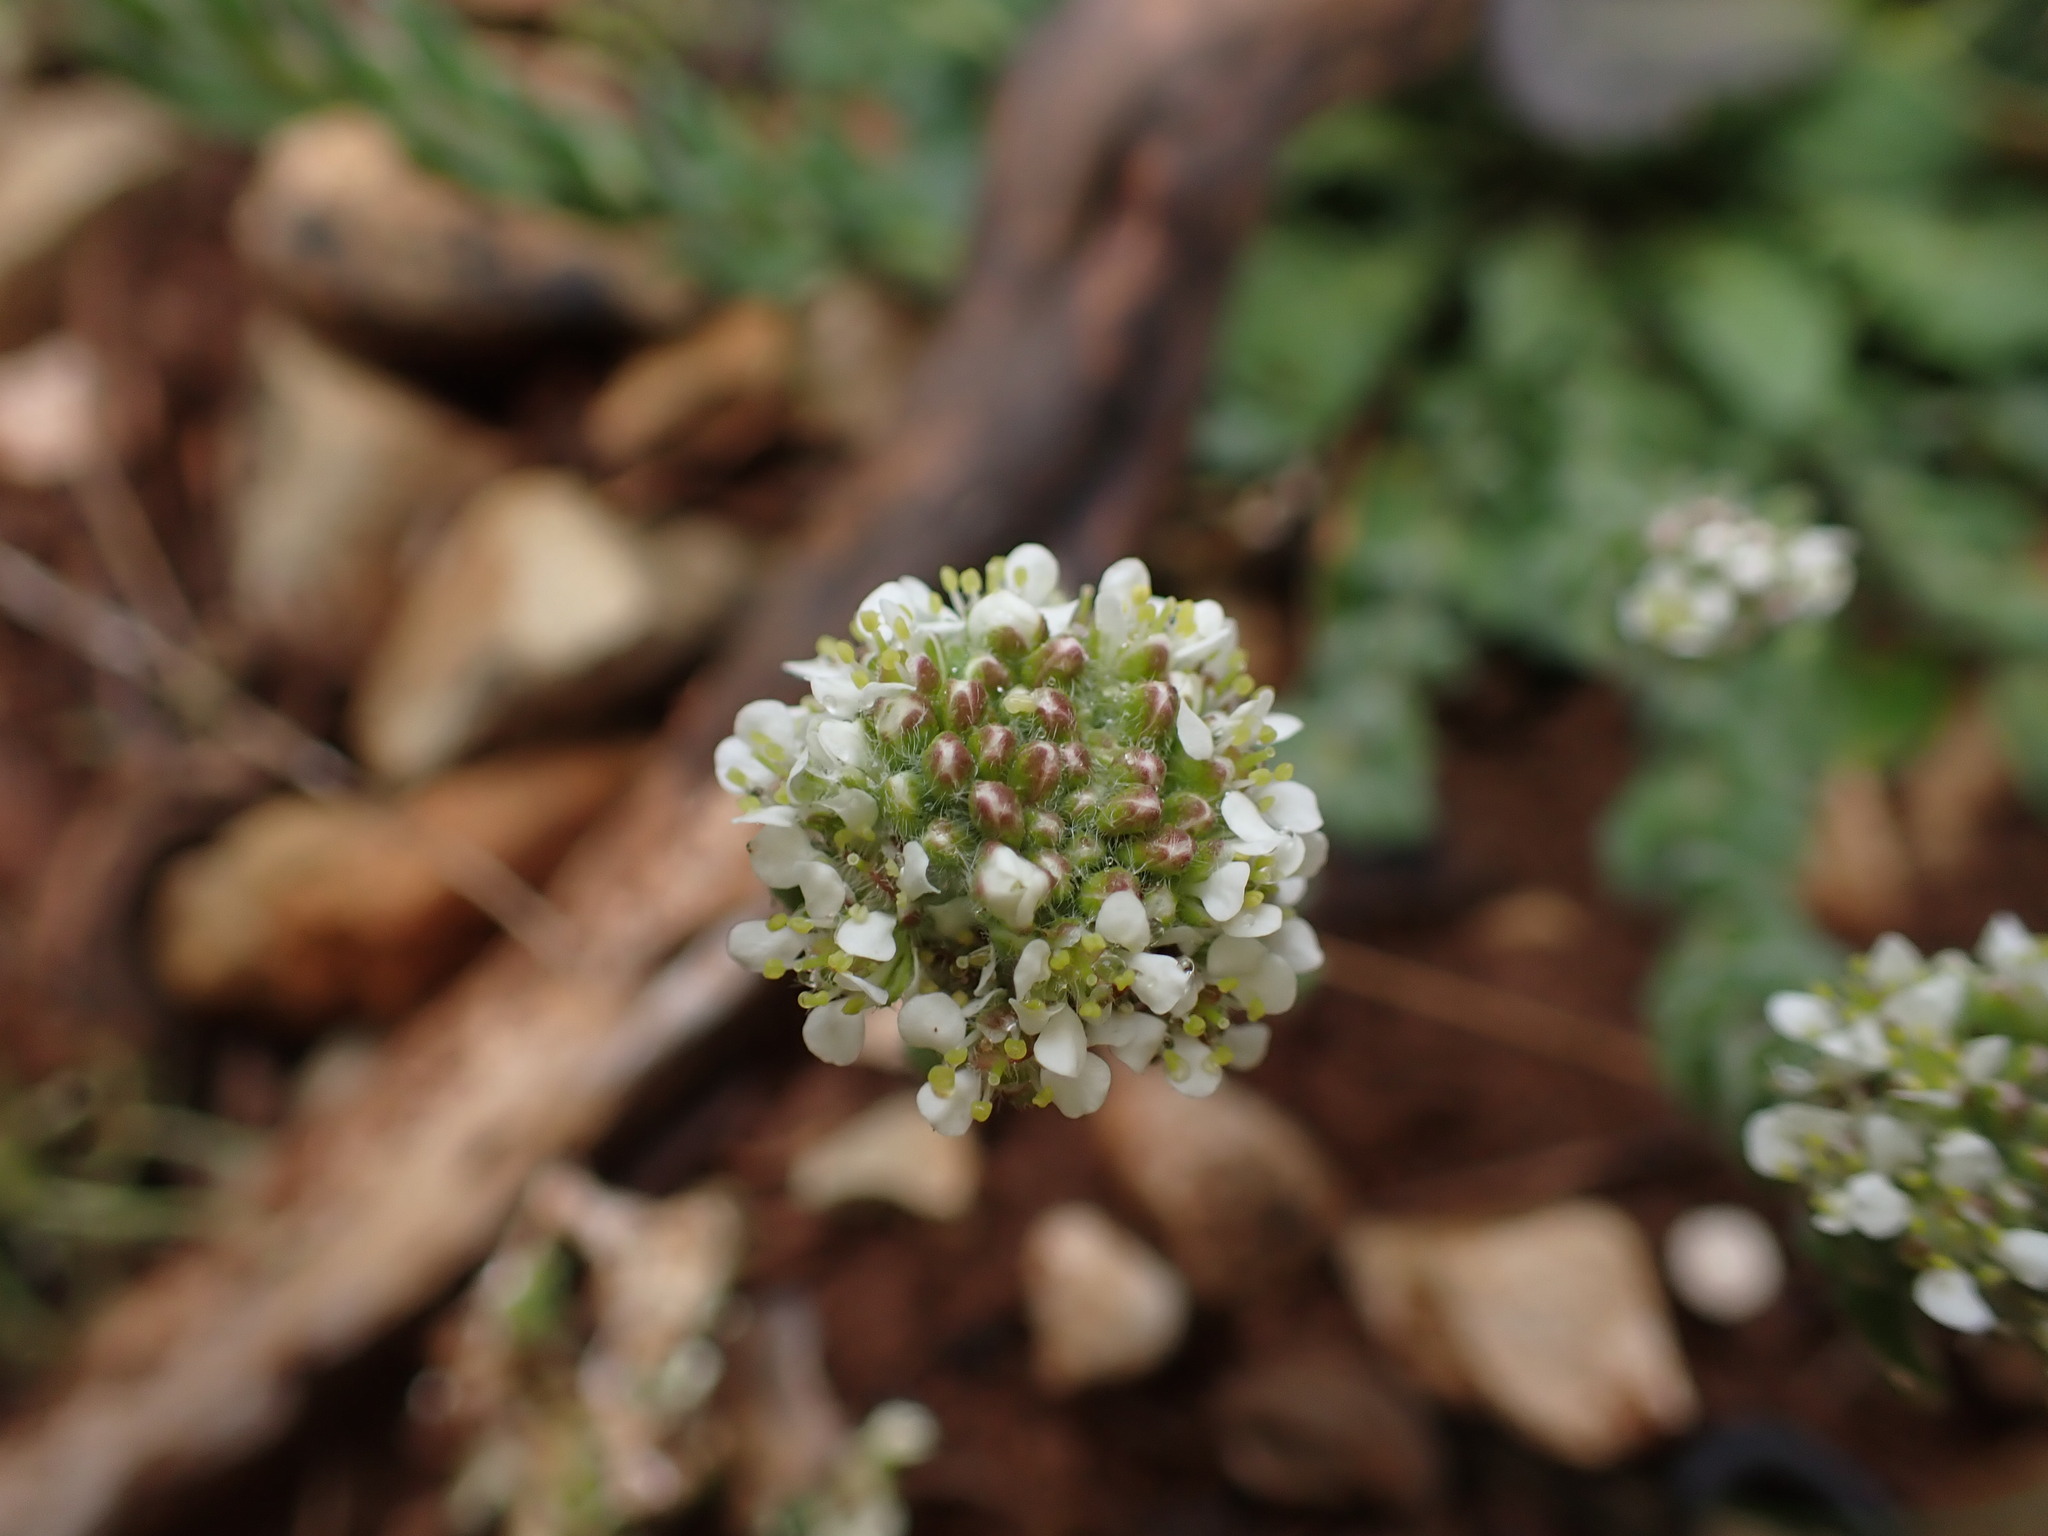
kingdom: Plantae
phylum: Tracheophyta
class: Magnoliopsida
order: Brassicales
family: Brassicaceae
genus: Lepidium
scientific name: Lepidium hirtum
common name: Mediterranean pepperweed
